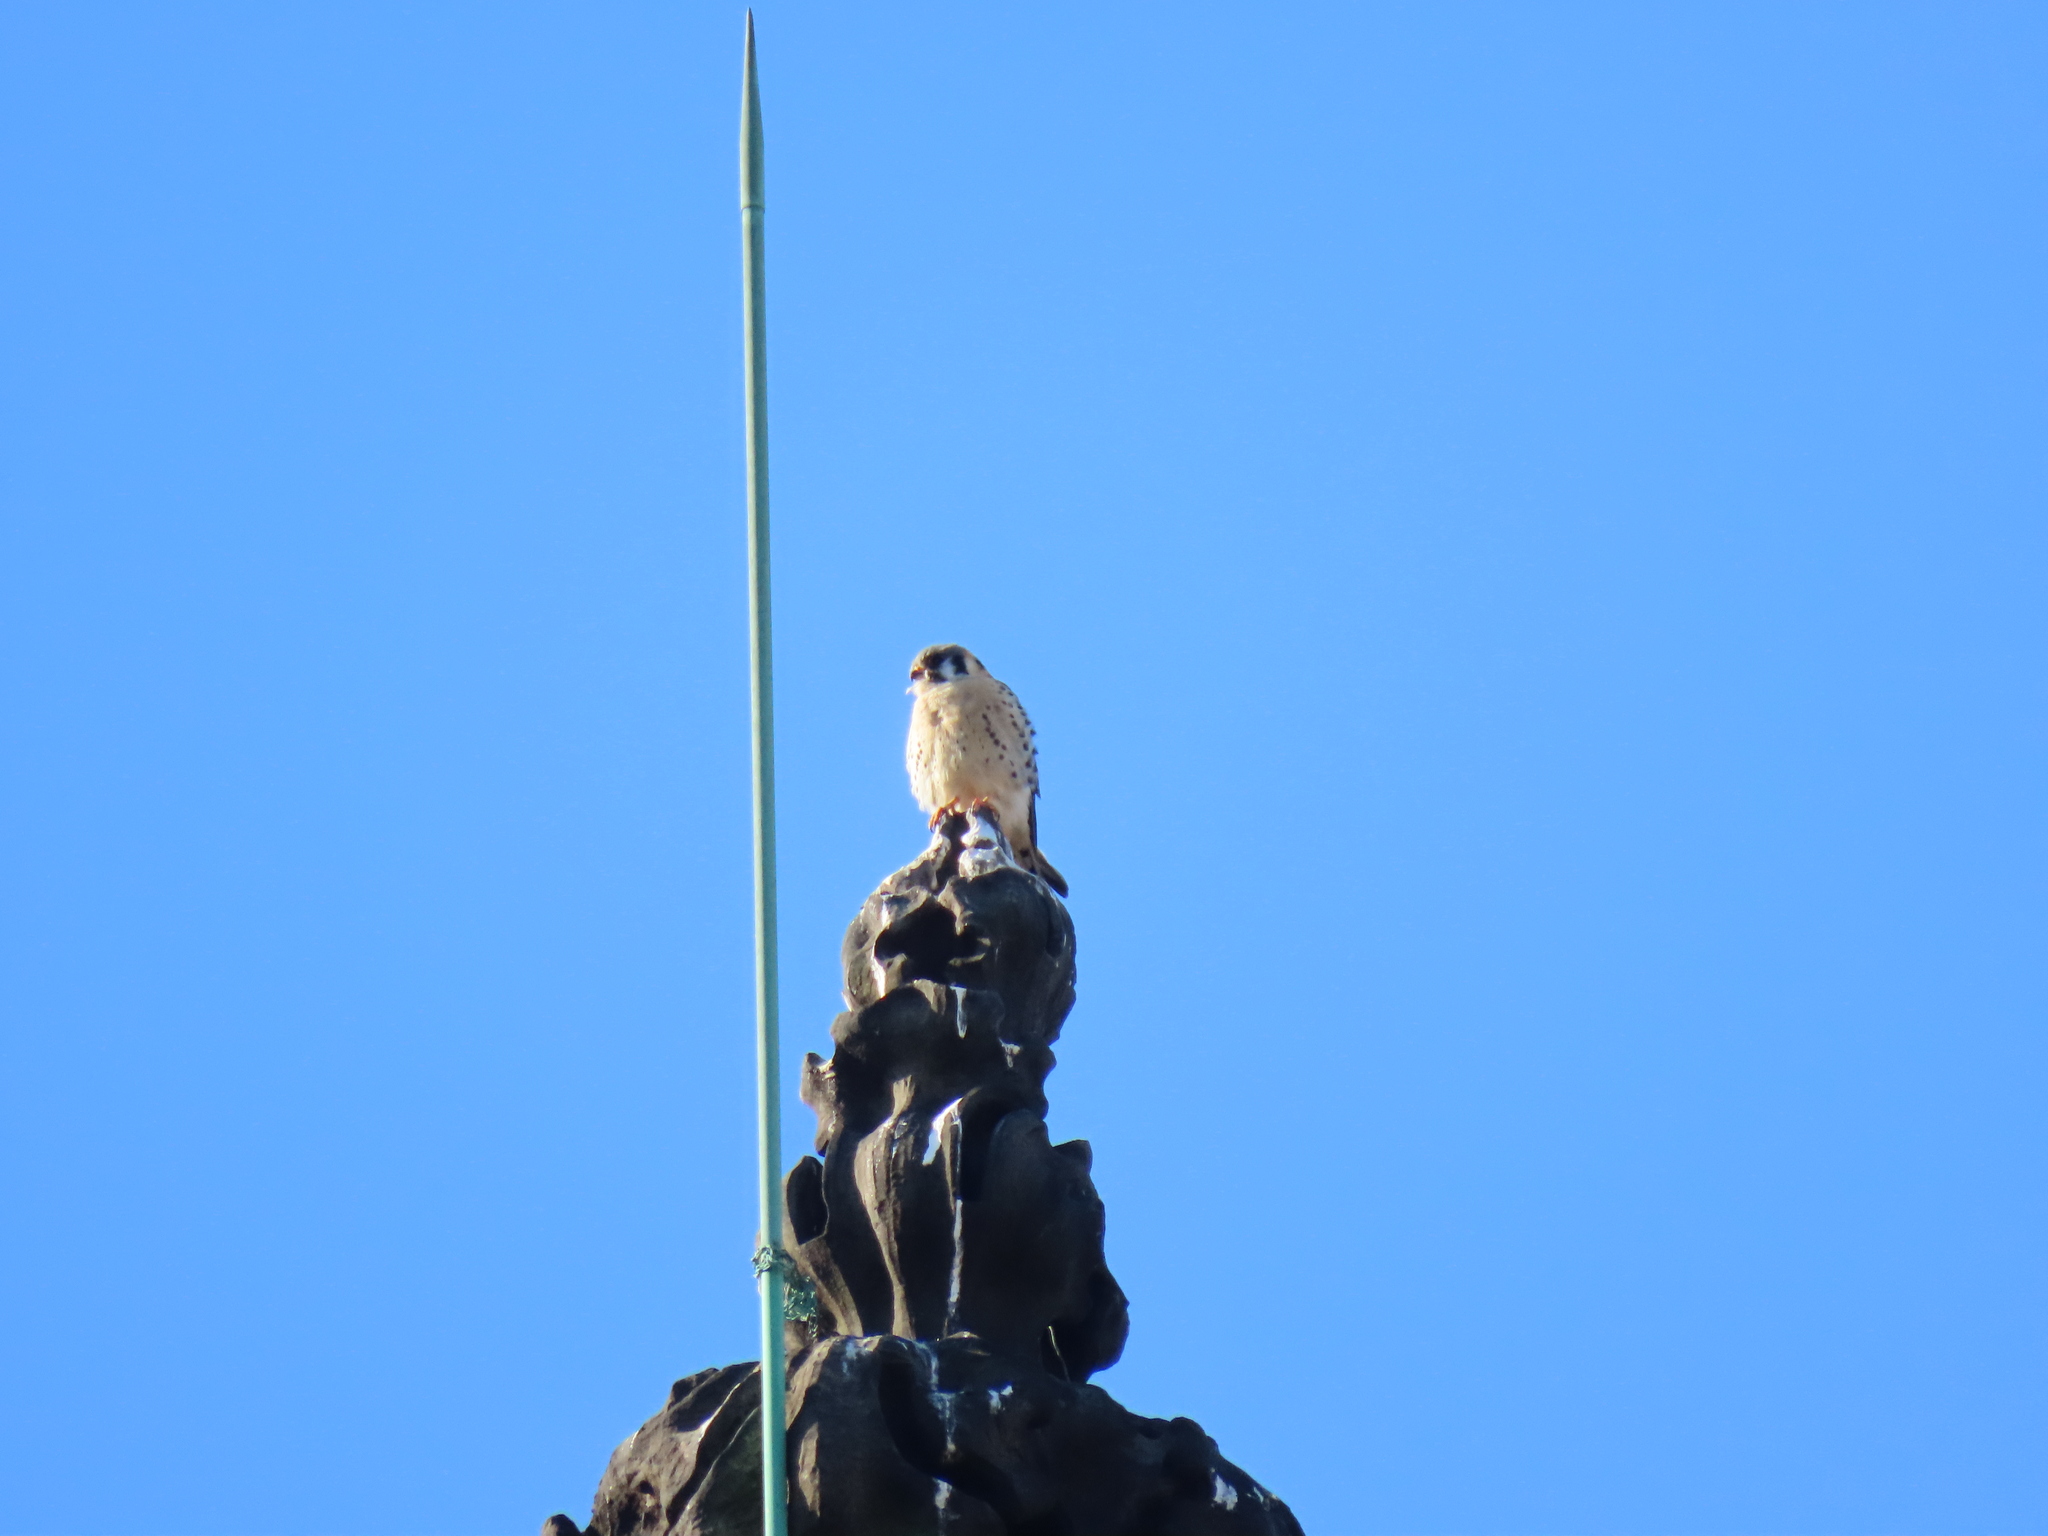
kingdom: Animalia
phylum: Chordata
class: Aves
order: Falconiformes
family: Falconidae
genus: Falco
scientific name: Falco sparverius
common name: American kestrel
